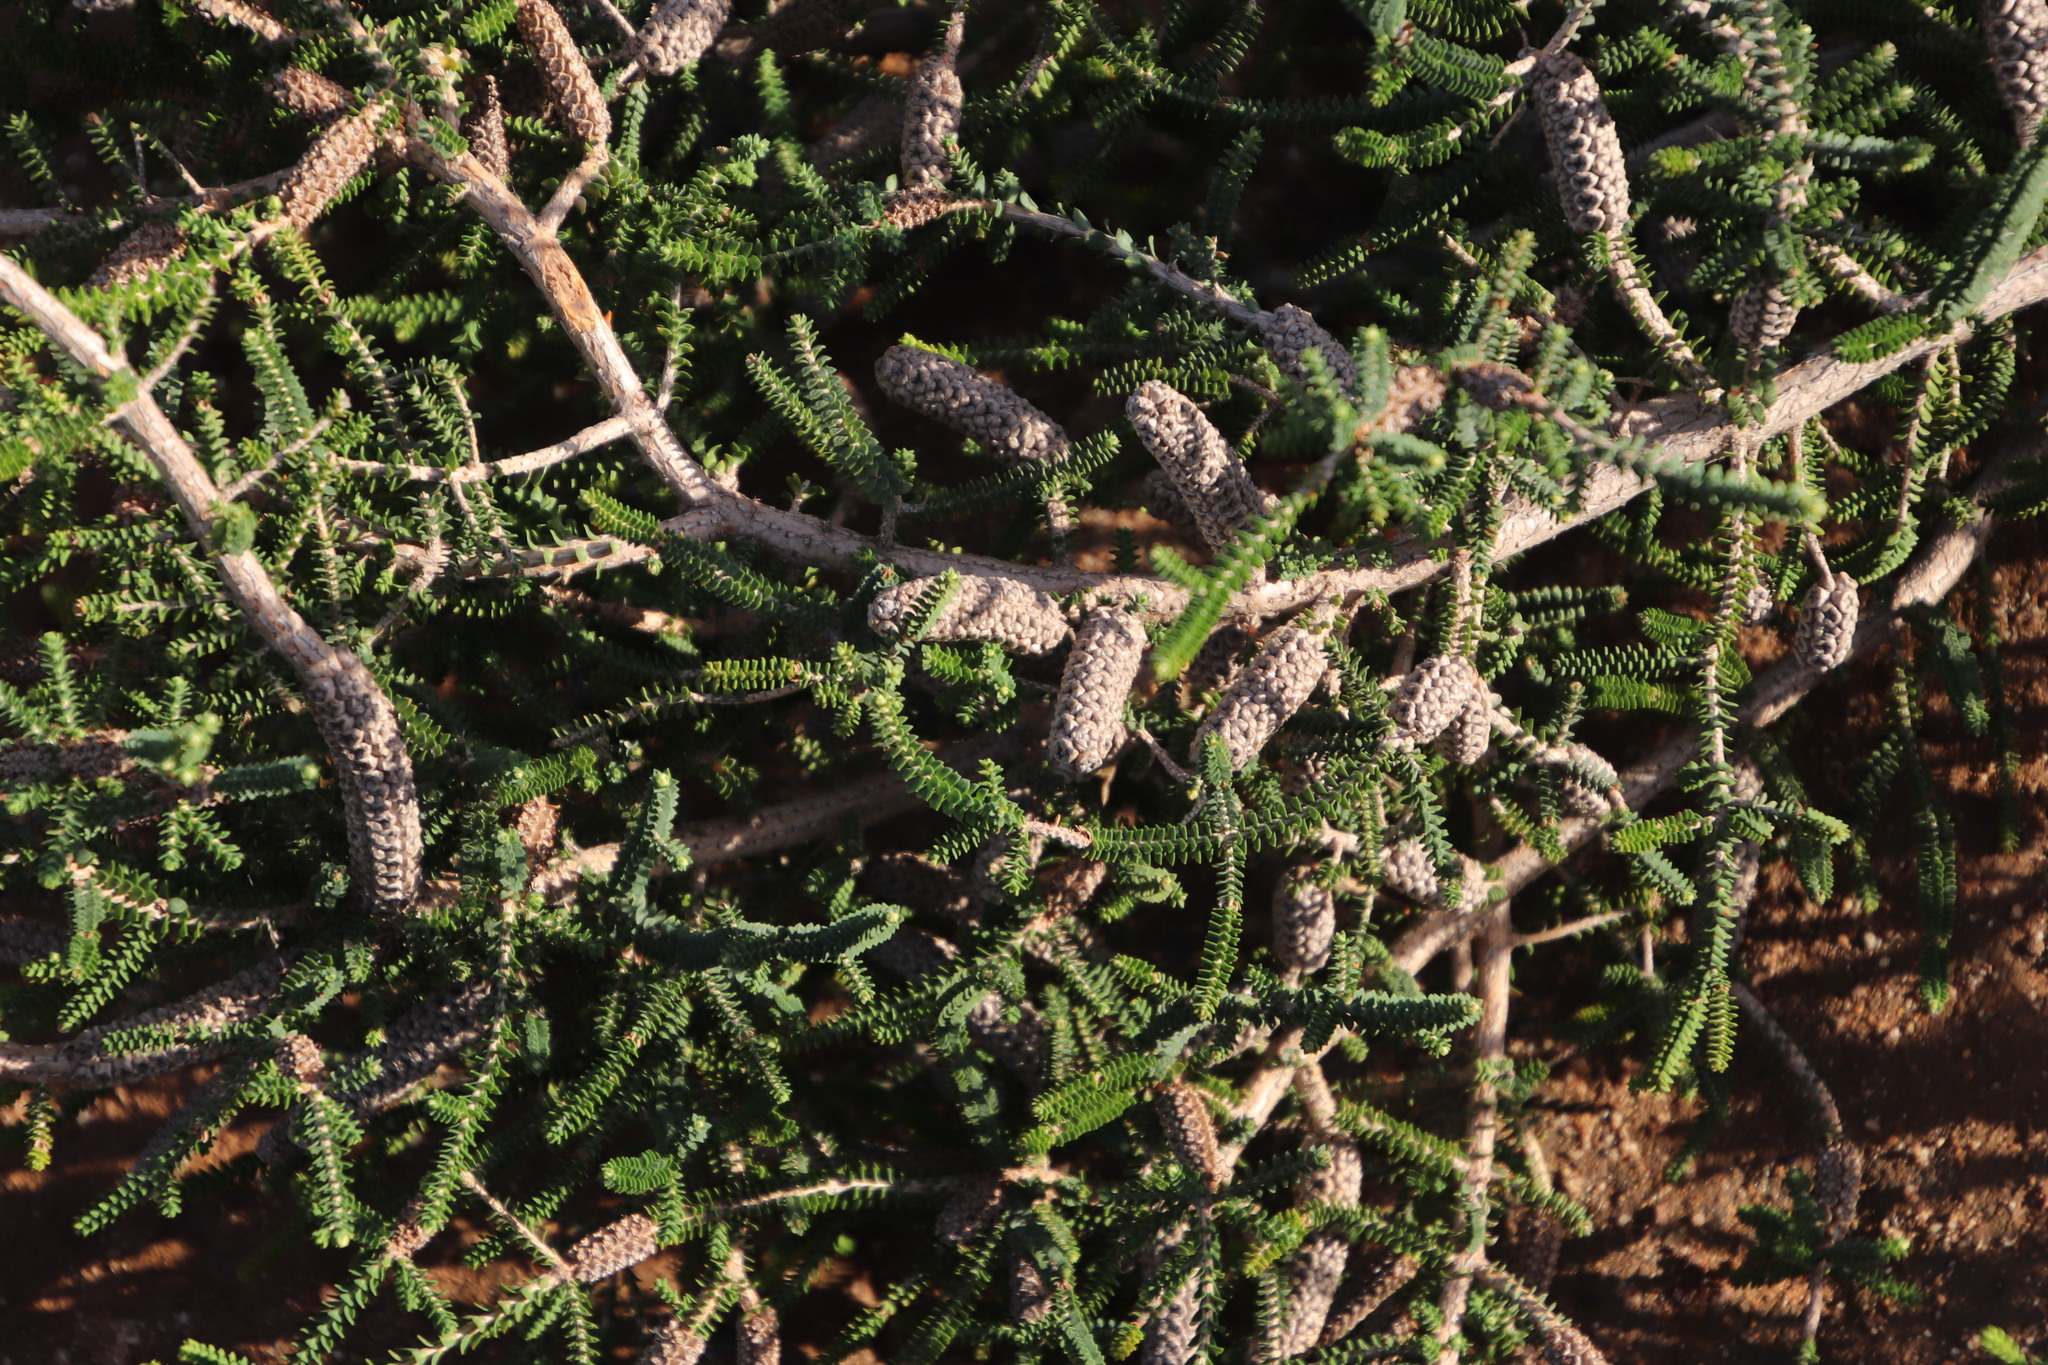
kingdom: Plantae
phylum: Tracheophyta
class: Magnoliopsida
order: Myrtales
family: Myrtaceae
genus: Melaleuca
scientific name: Melaleuca densa
